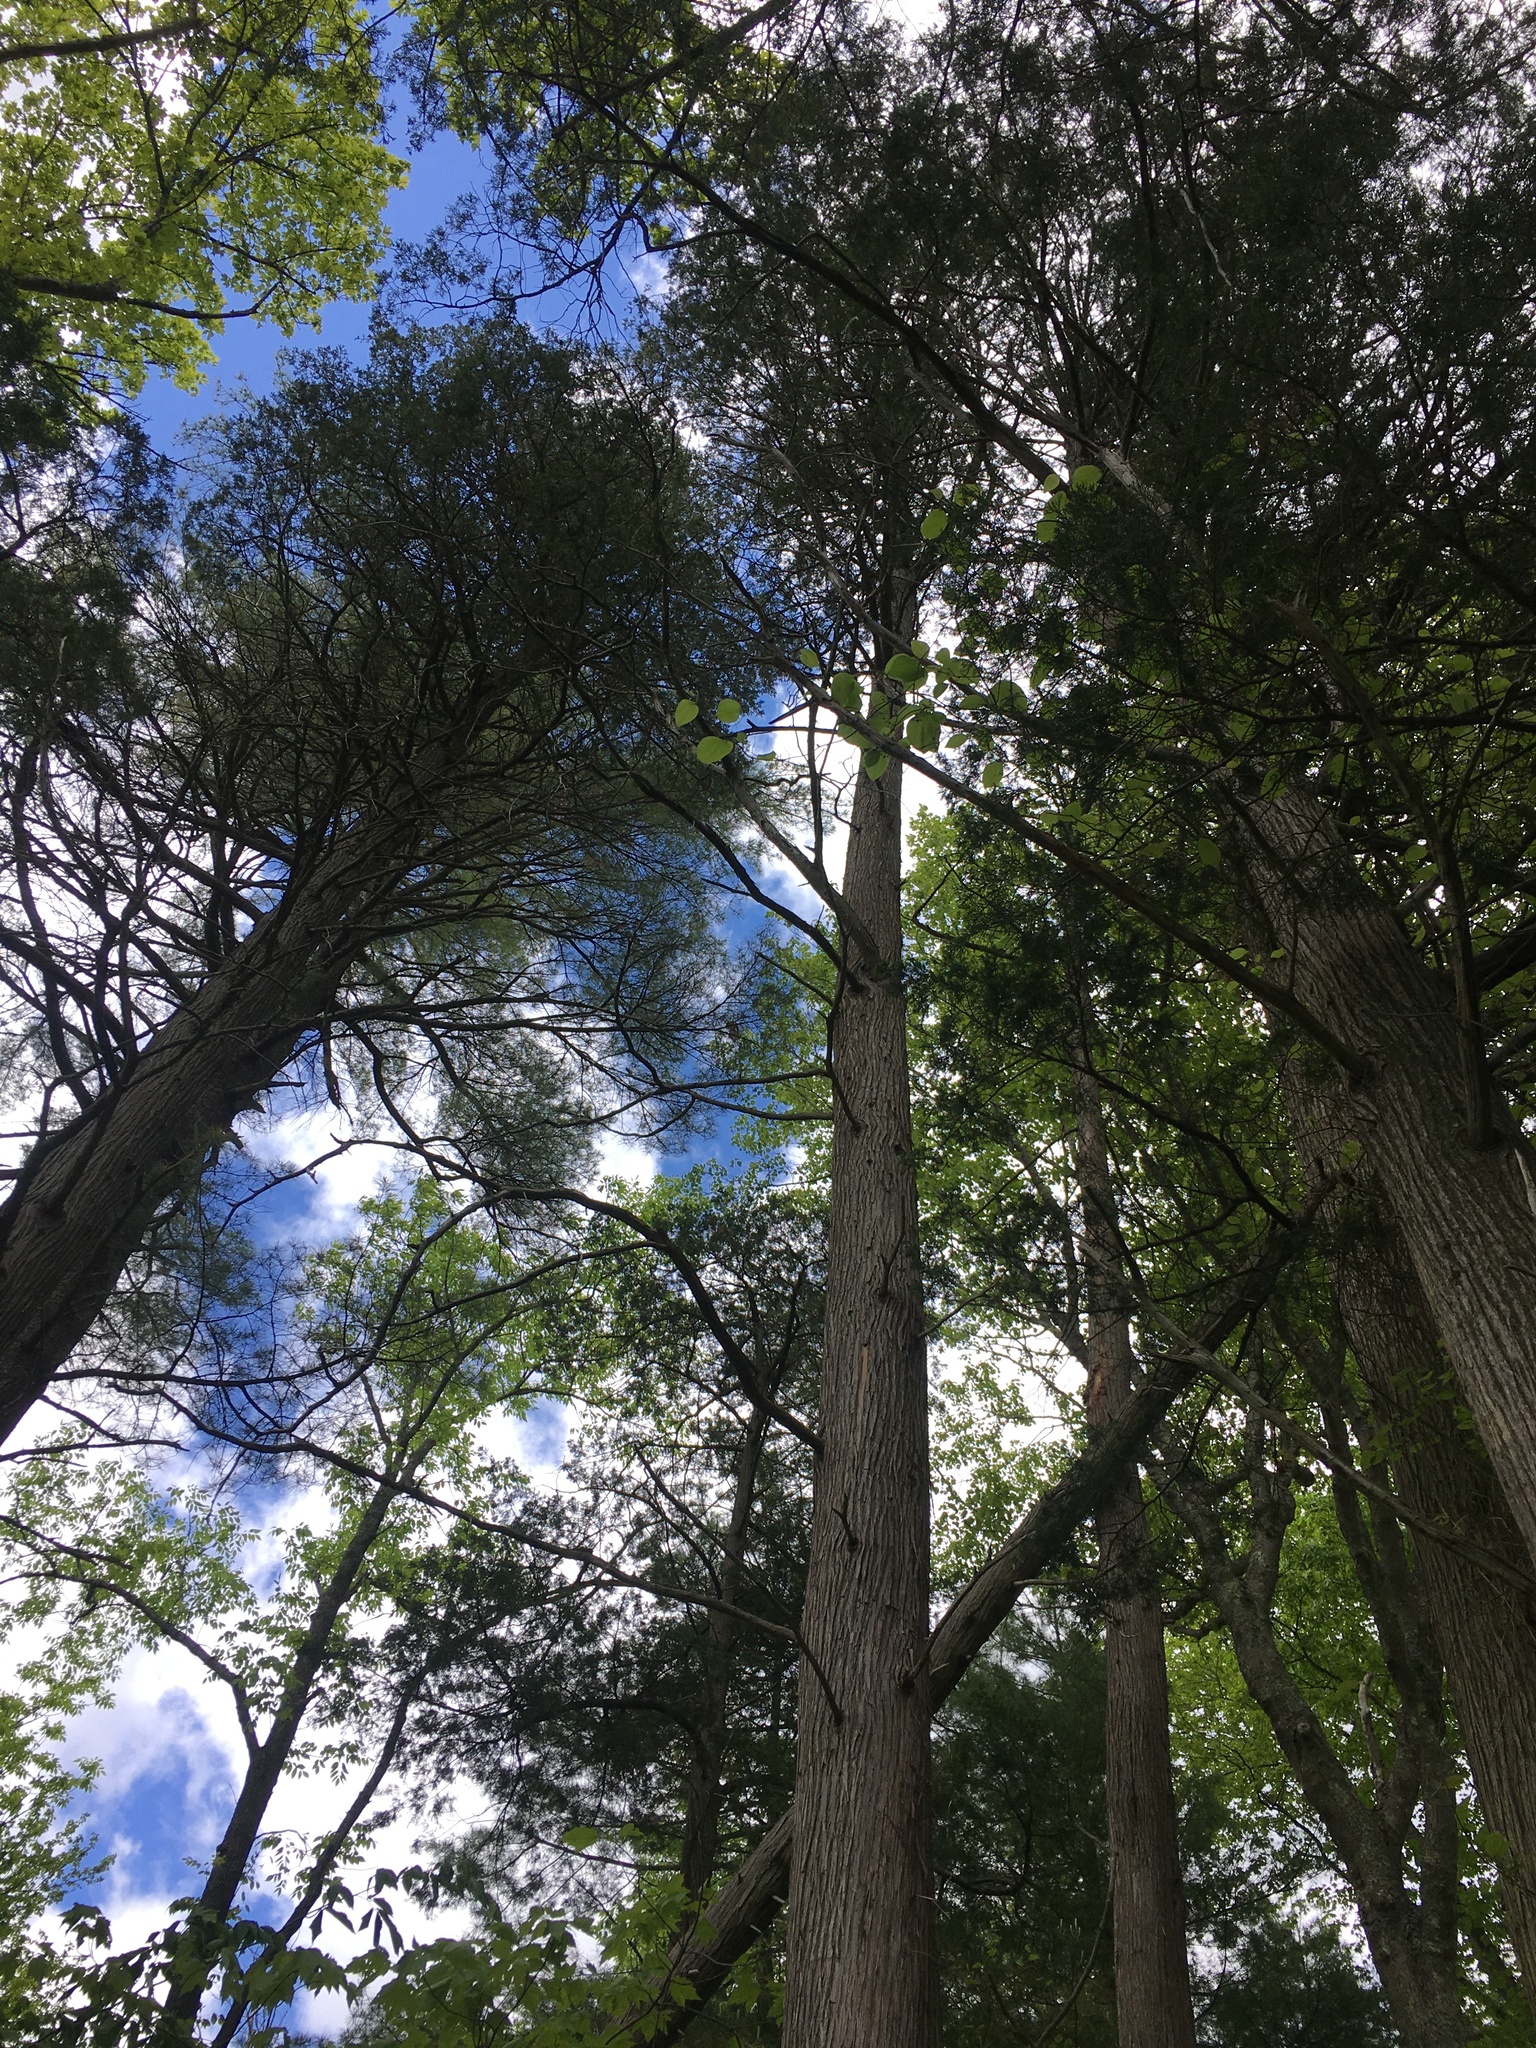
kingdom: Plantae
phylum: Tracheophyta
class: Pinopsida
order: Pinales
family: Cupressaceae
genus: Chamaecyparis
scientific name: Chamaecyparis thyoides
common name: Atlantic white cedar
